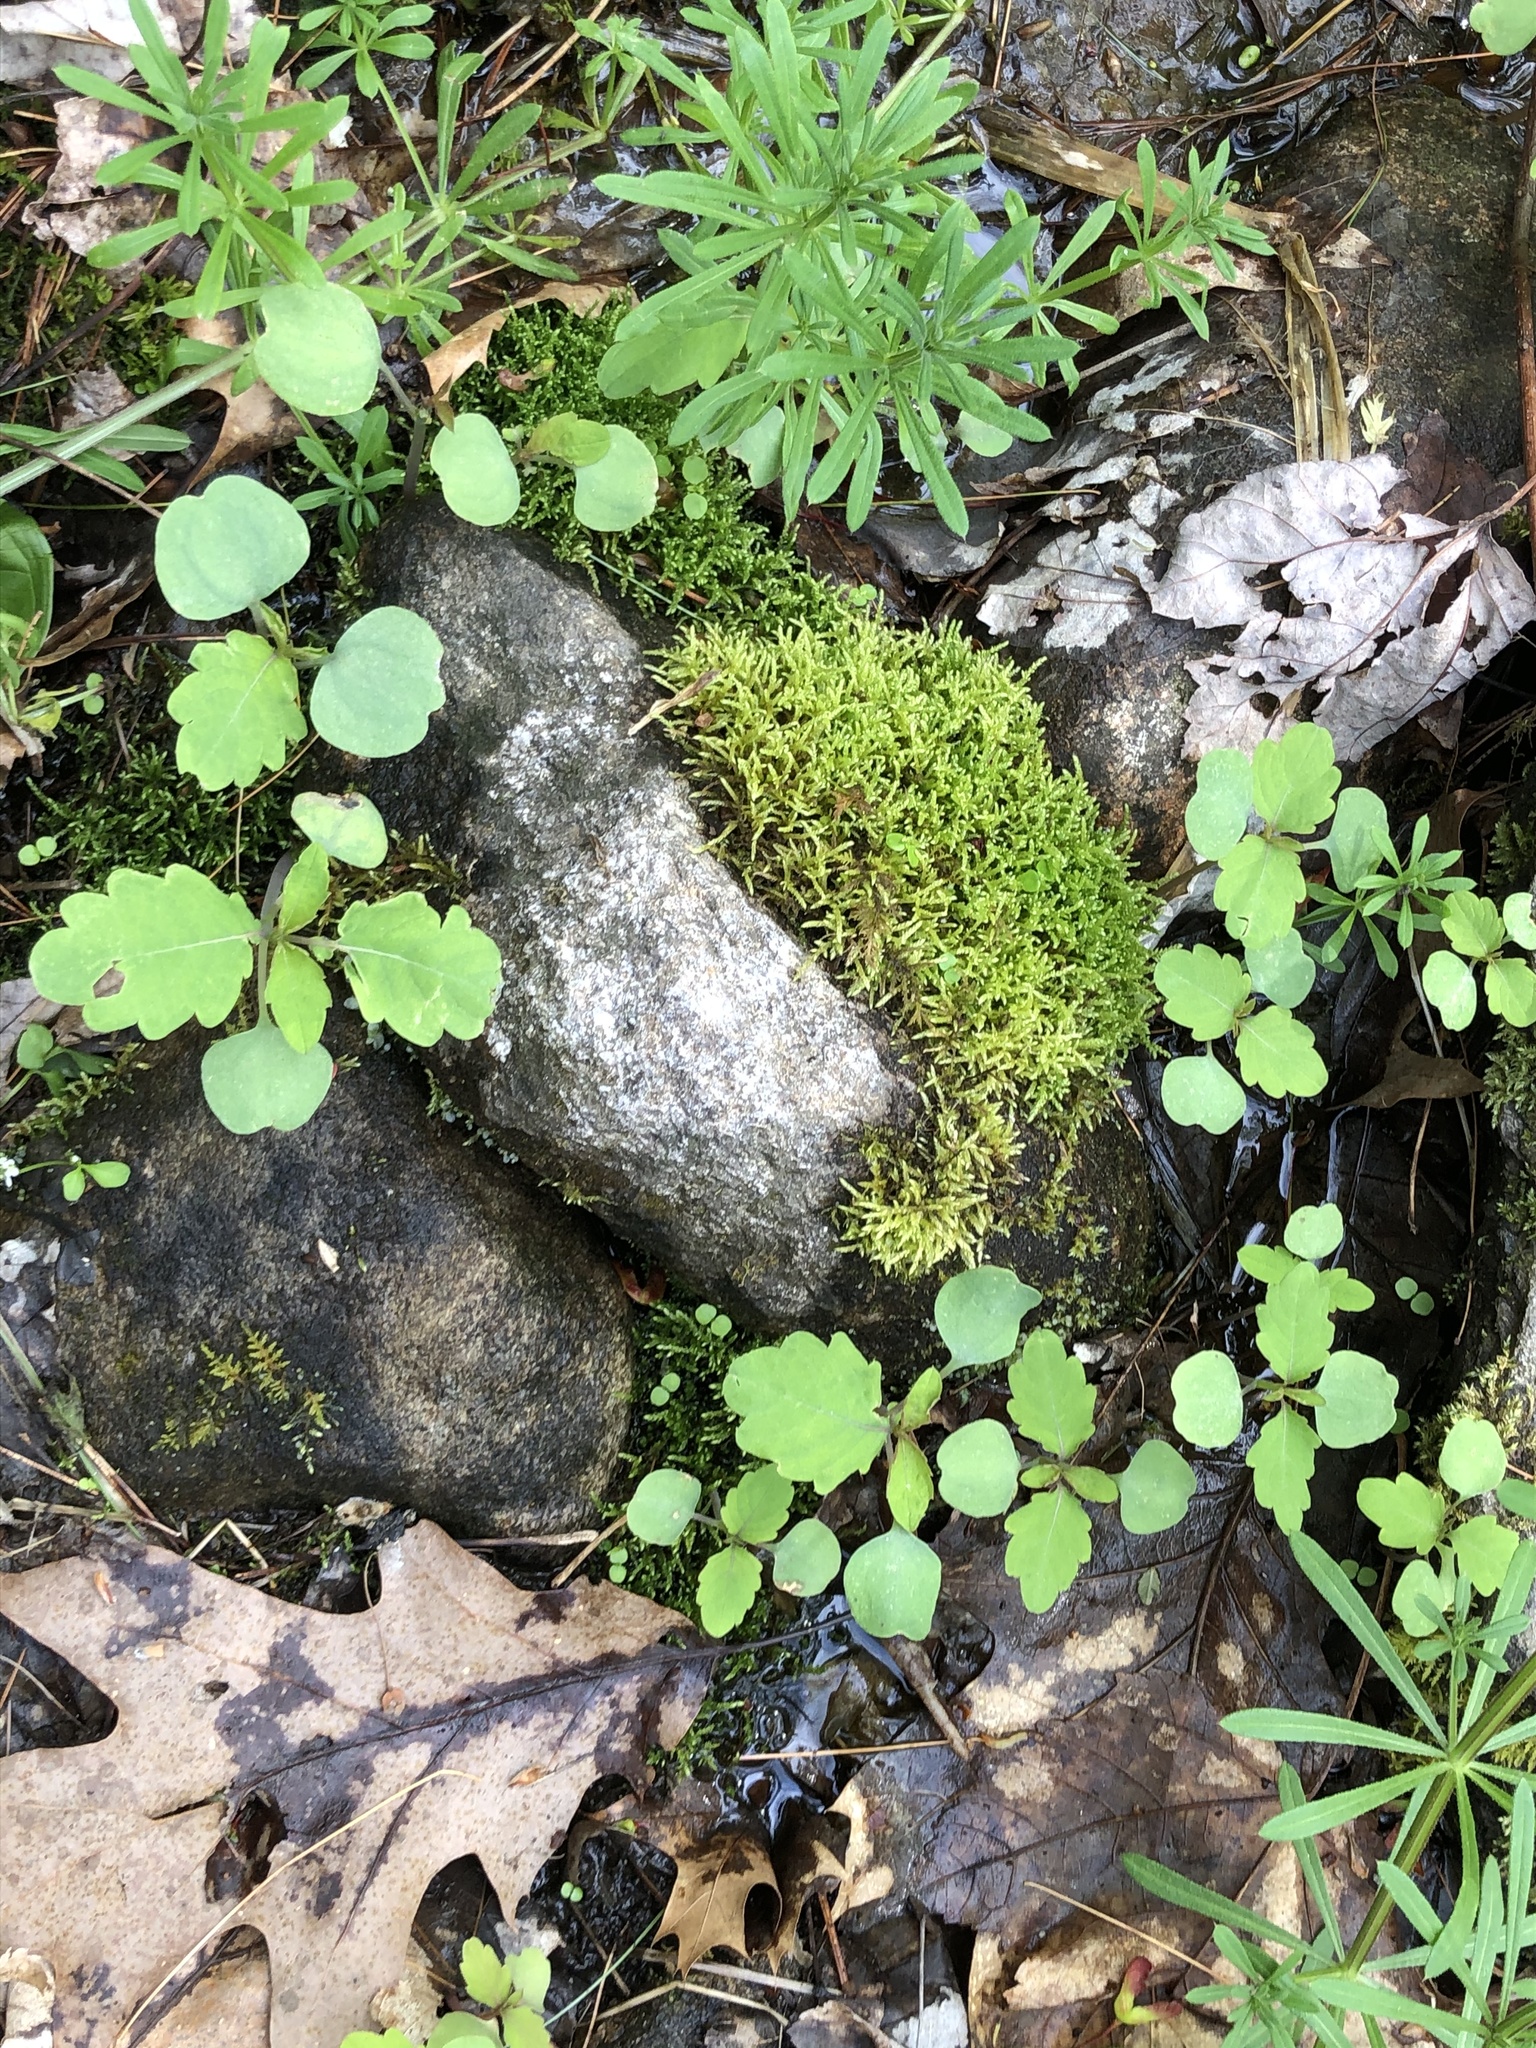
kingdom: Plantae
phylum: Tracheophyta
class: Magnoliopsida
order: Ericales
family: Balsaminaceae
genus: Impatiens
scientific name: Impatiens capensis
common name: Orange balsam
